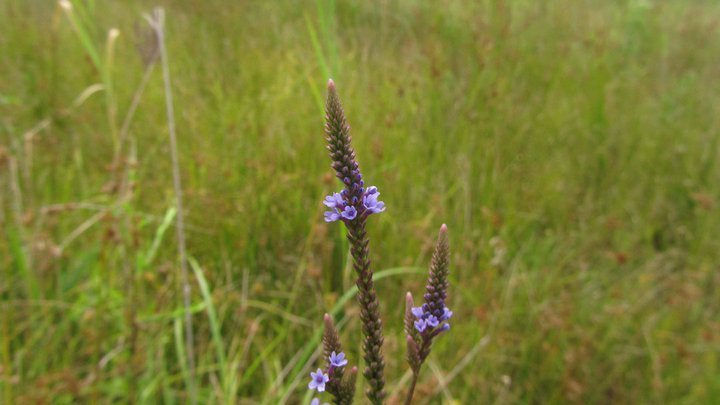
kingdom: Plantae
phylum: Tracheophyta
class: Magnoliopsida
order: Lamiales
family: Verbenaceae
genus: Verbena
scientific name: Verbena hastata
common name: American blue vervain
